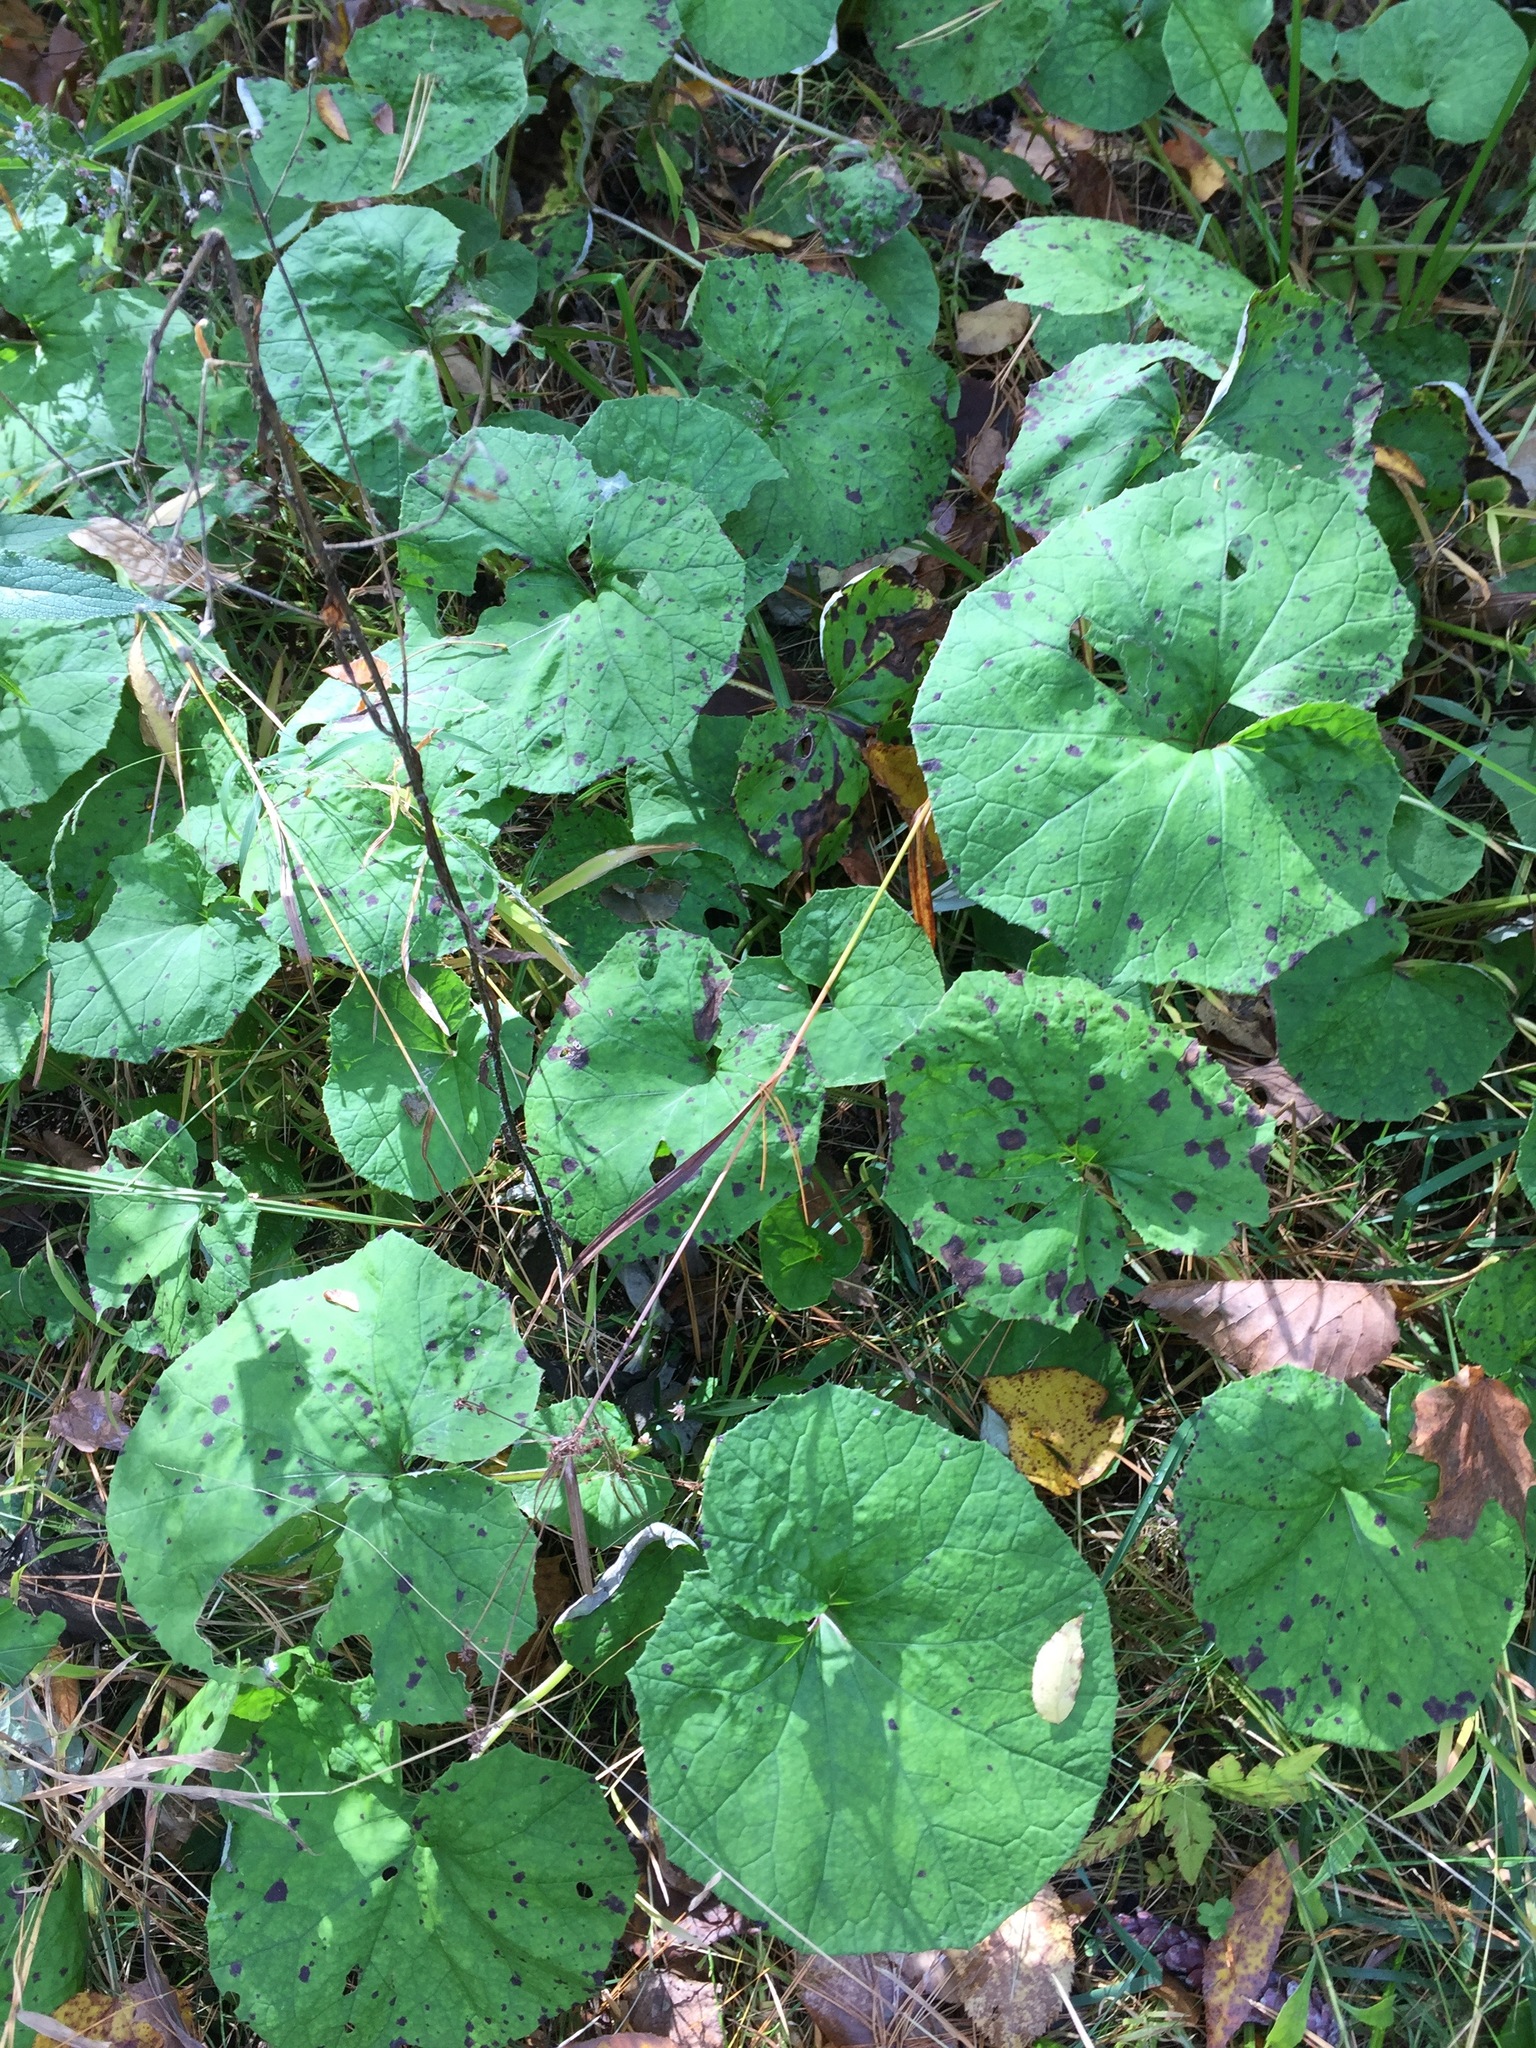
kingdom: Plantae
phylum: Tracheophyta
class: Magnoliopsida
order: Asterales
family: Asteraceae
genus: Tussilago
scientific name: Tussilago farfara
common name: Coltsfoot
